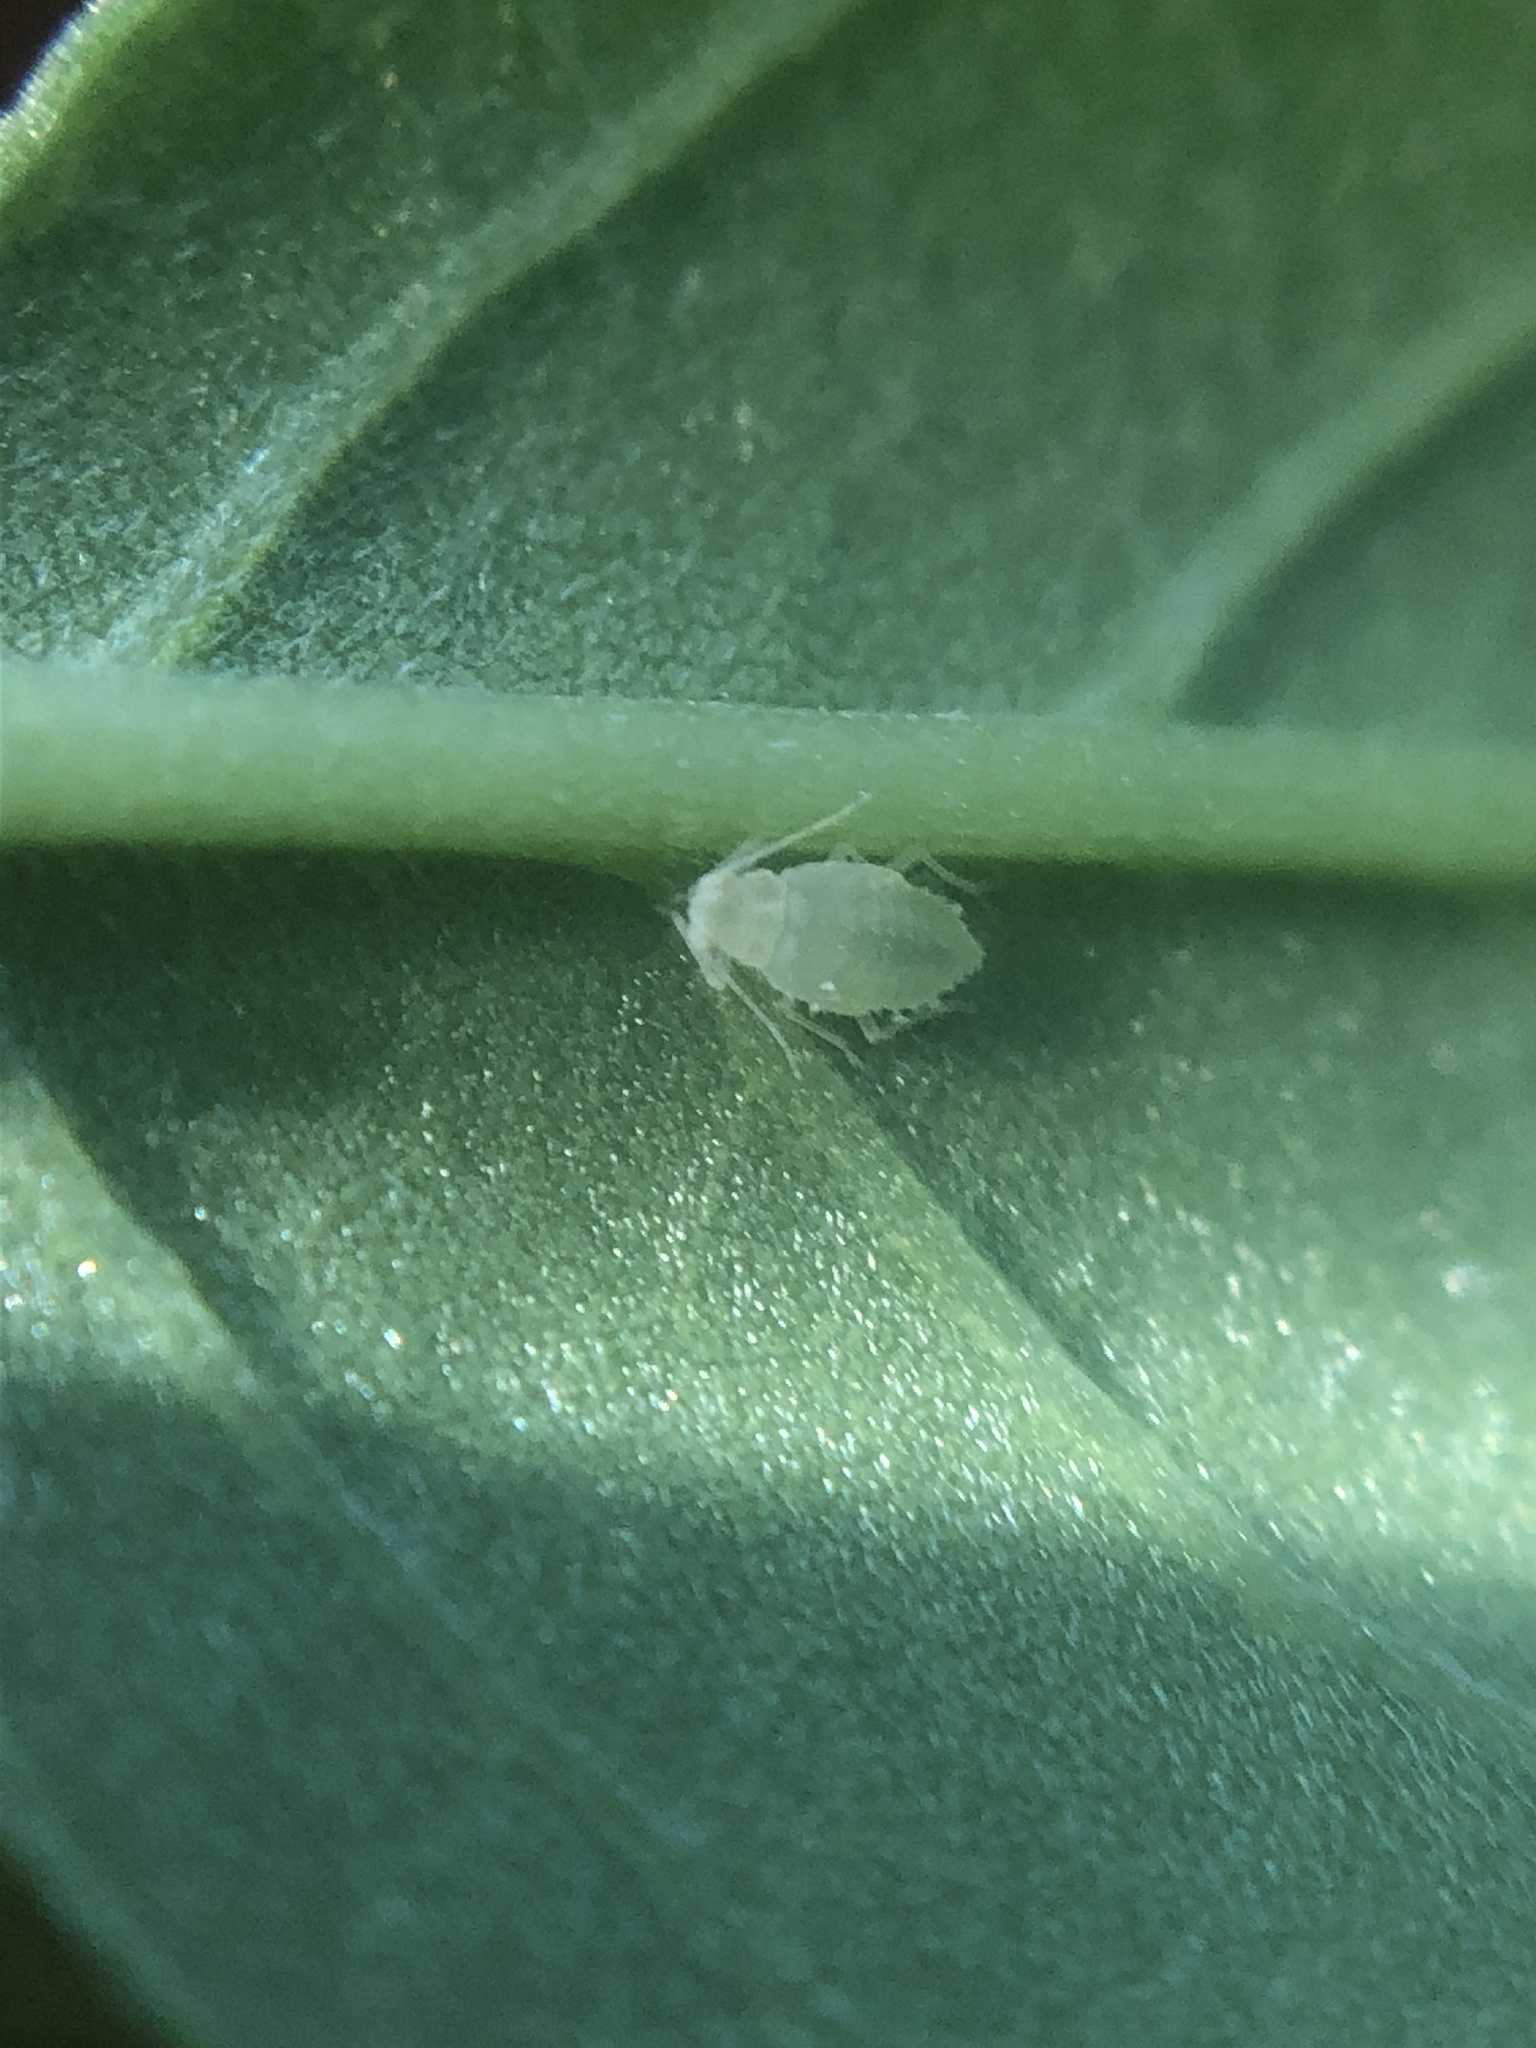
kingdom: Animalia
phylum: Arthropoda
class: Insecta
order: Hemiptera
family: Aphididae
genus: Appendiseta
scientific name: Appendiseta robiniae
